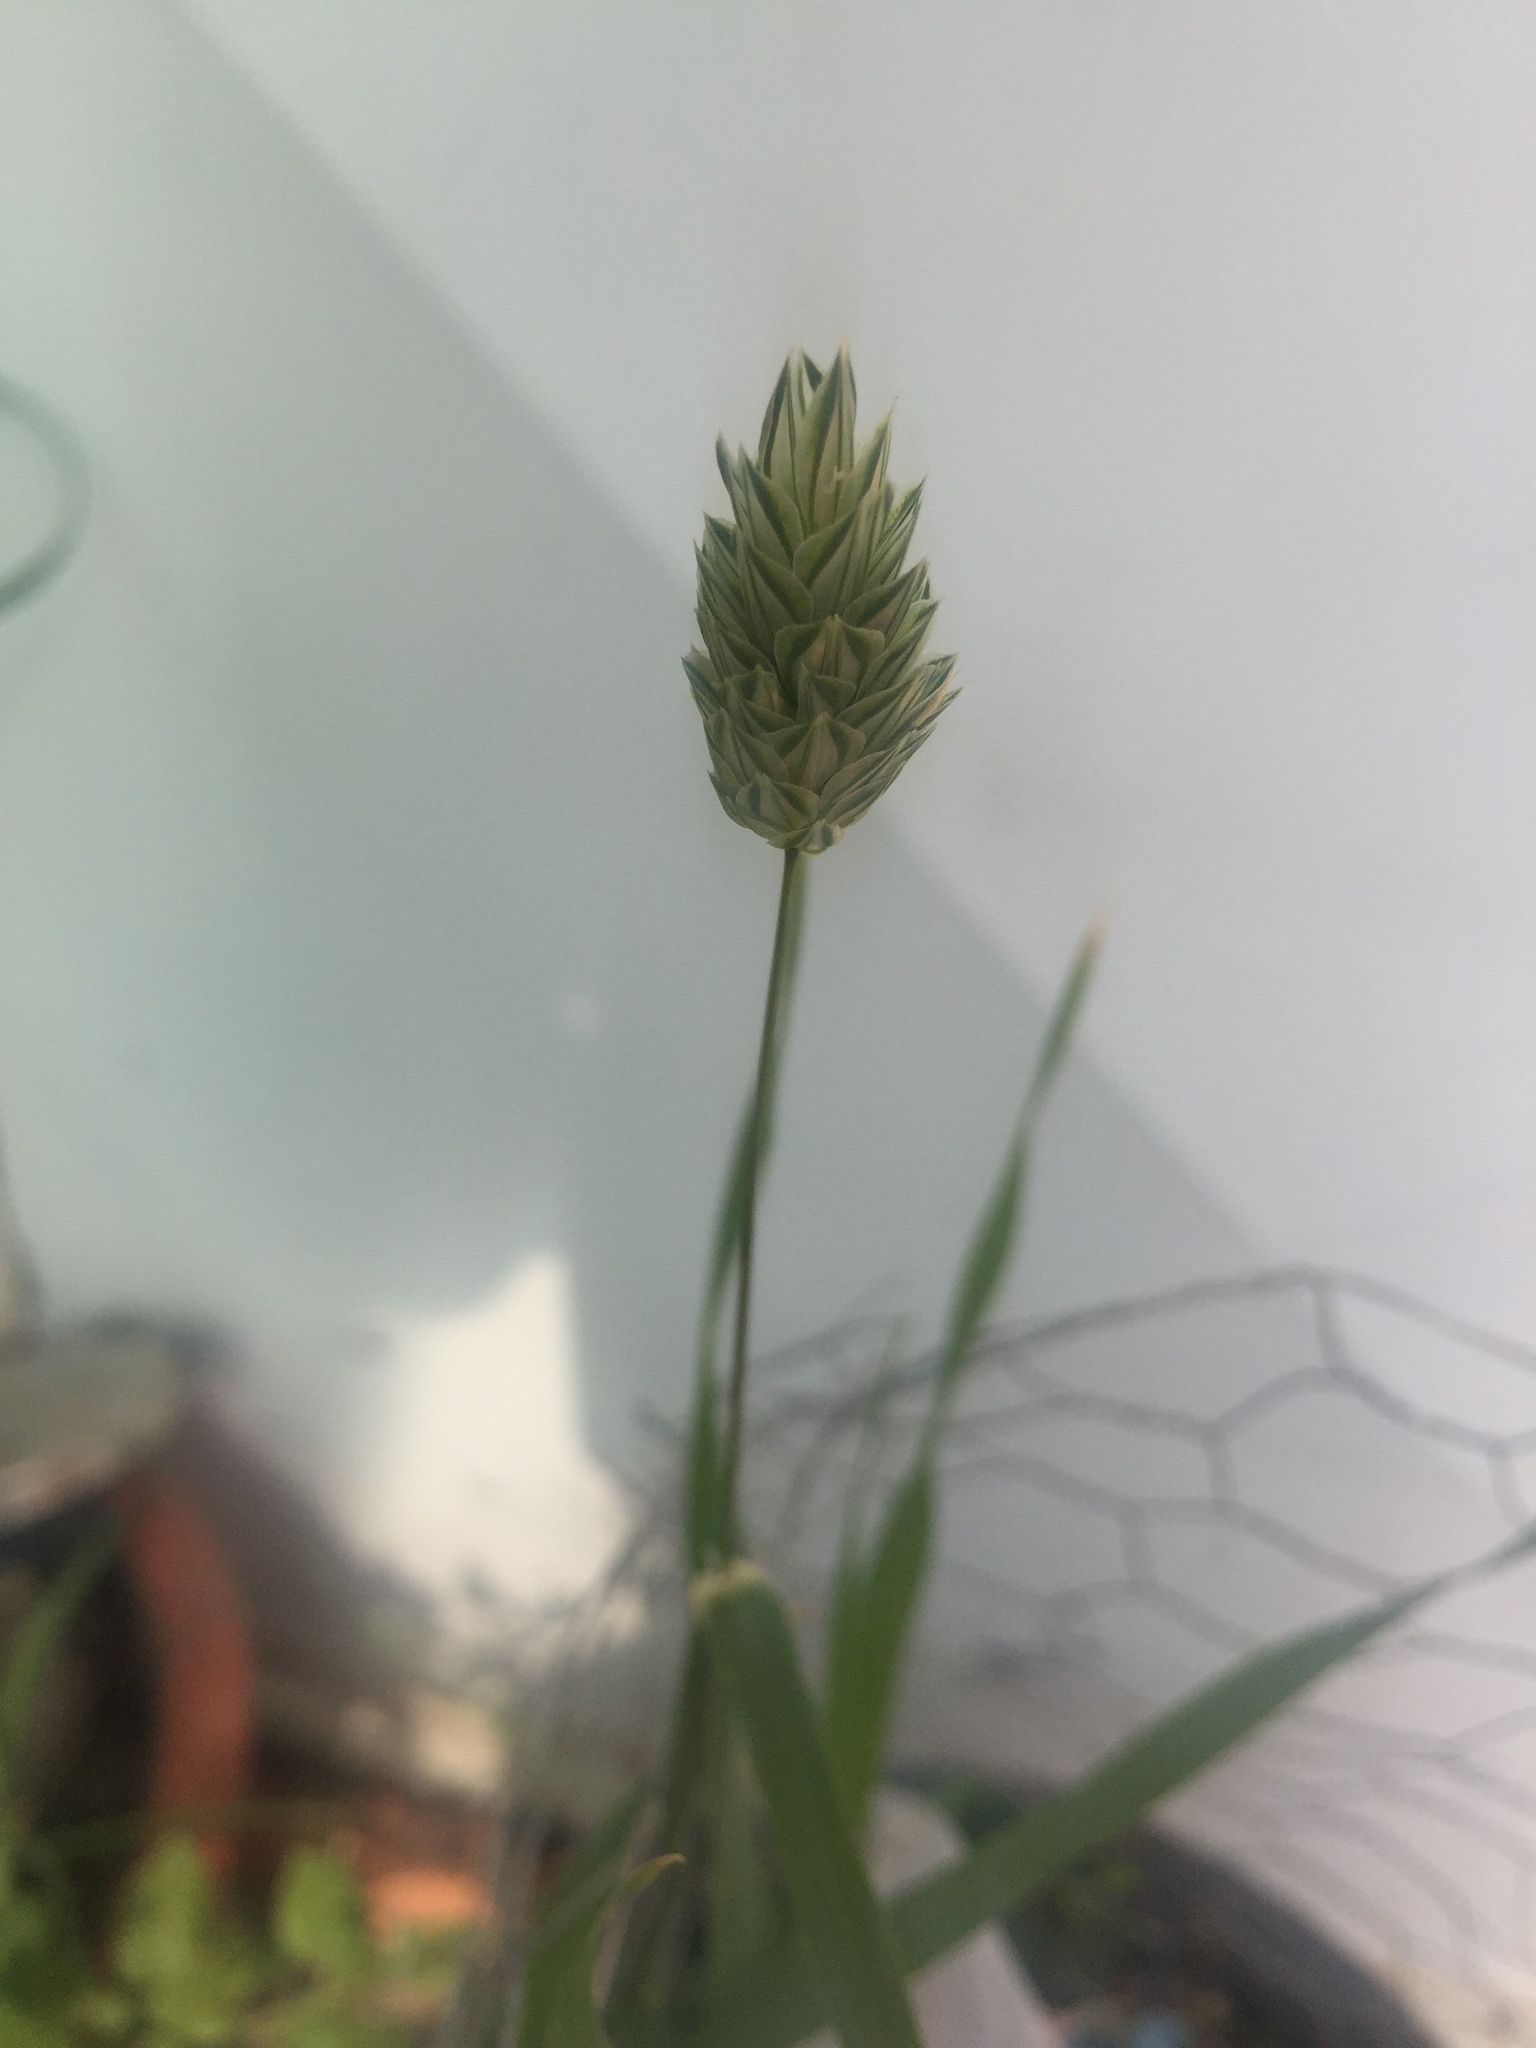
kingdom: Plantae
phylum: Tracheophyta
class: Liliopsida
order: Poales
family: Poaceae
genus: Phalaris
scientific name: Phalaris canariensis
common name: Annual canarygrass
